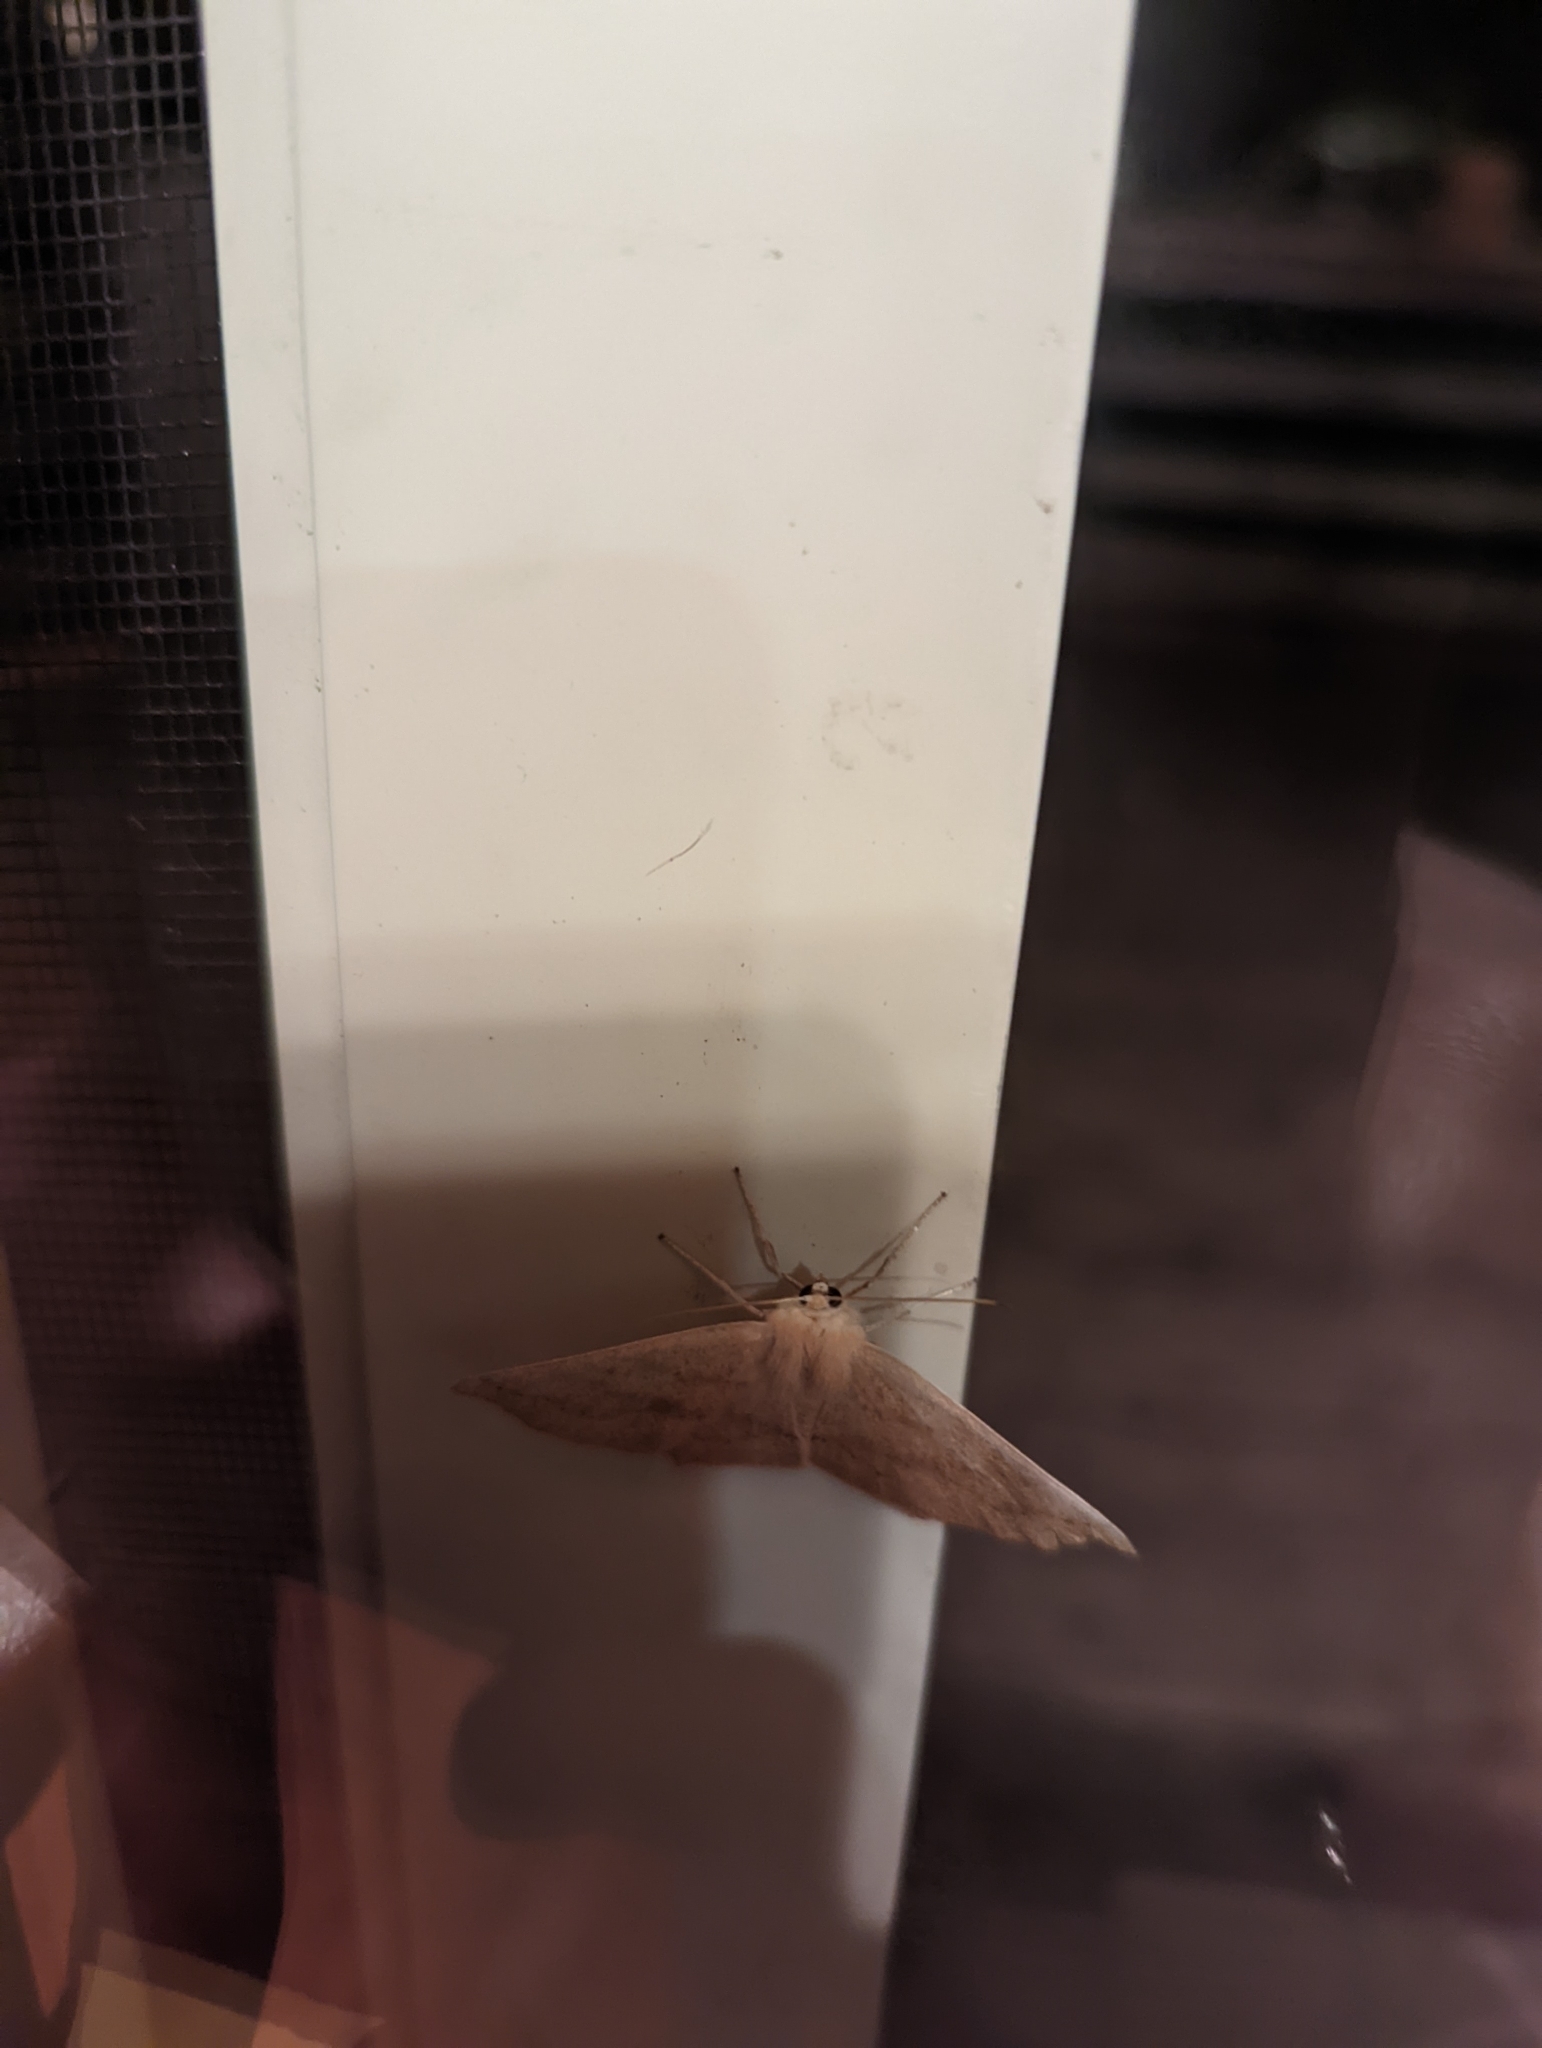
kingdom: Animalia
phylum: Arthropoda
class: Insecta
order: Lepidoptera
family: Geometridae
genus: Sabulodes
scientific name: Sabulodes aegrotata
